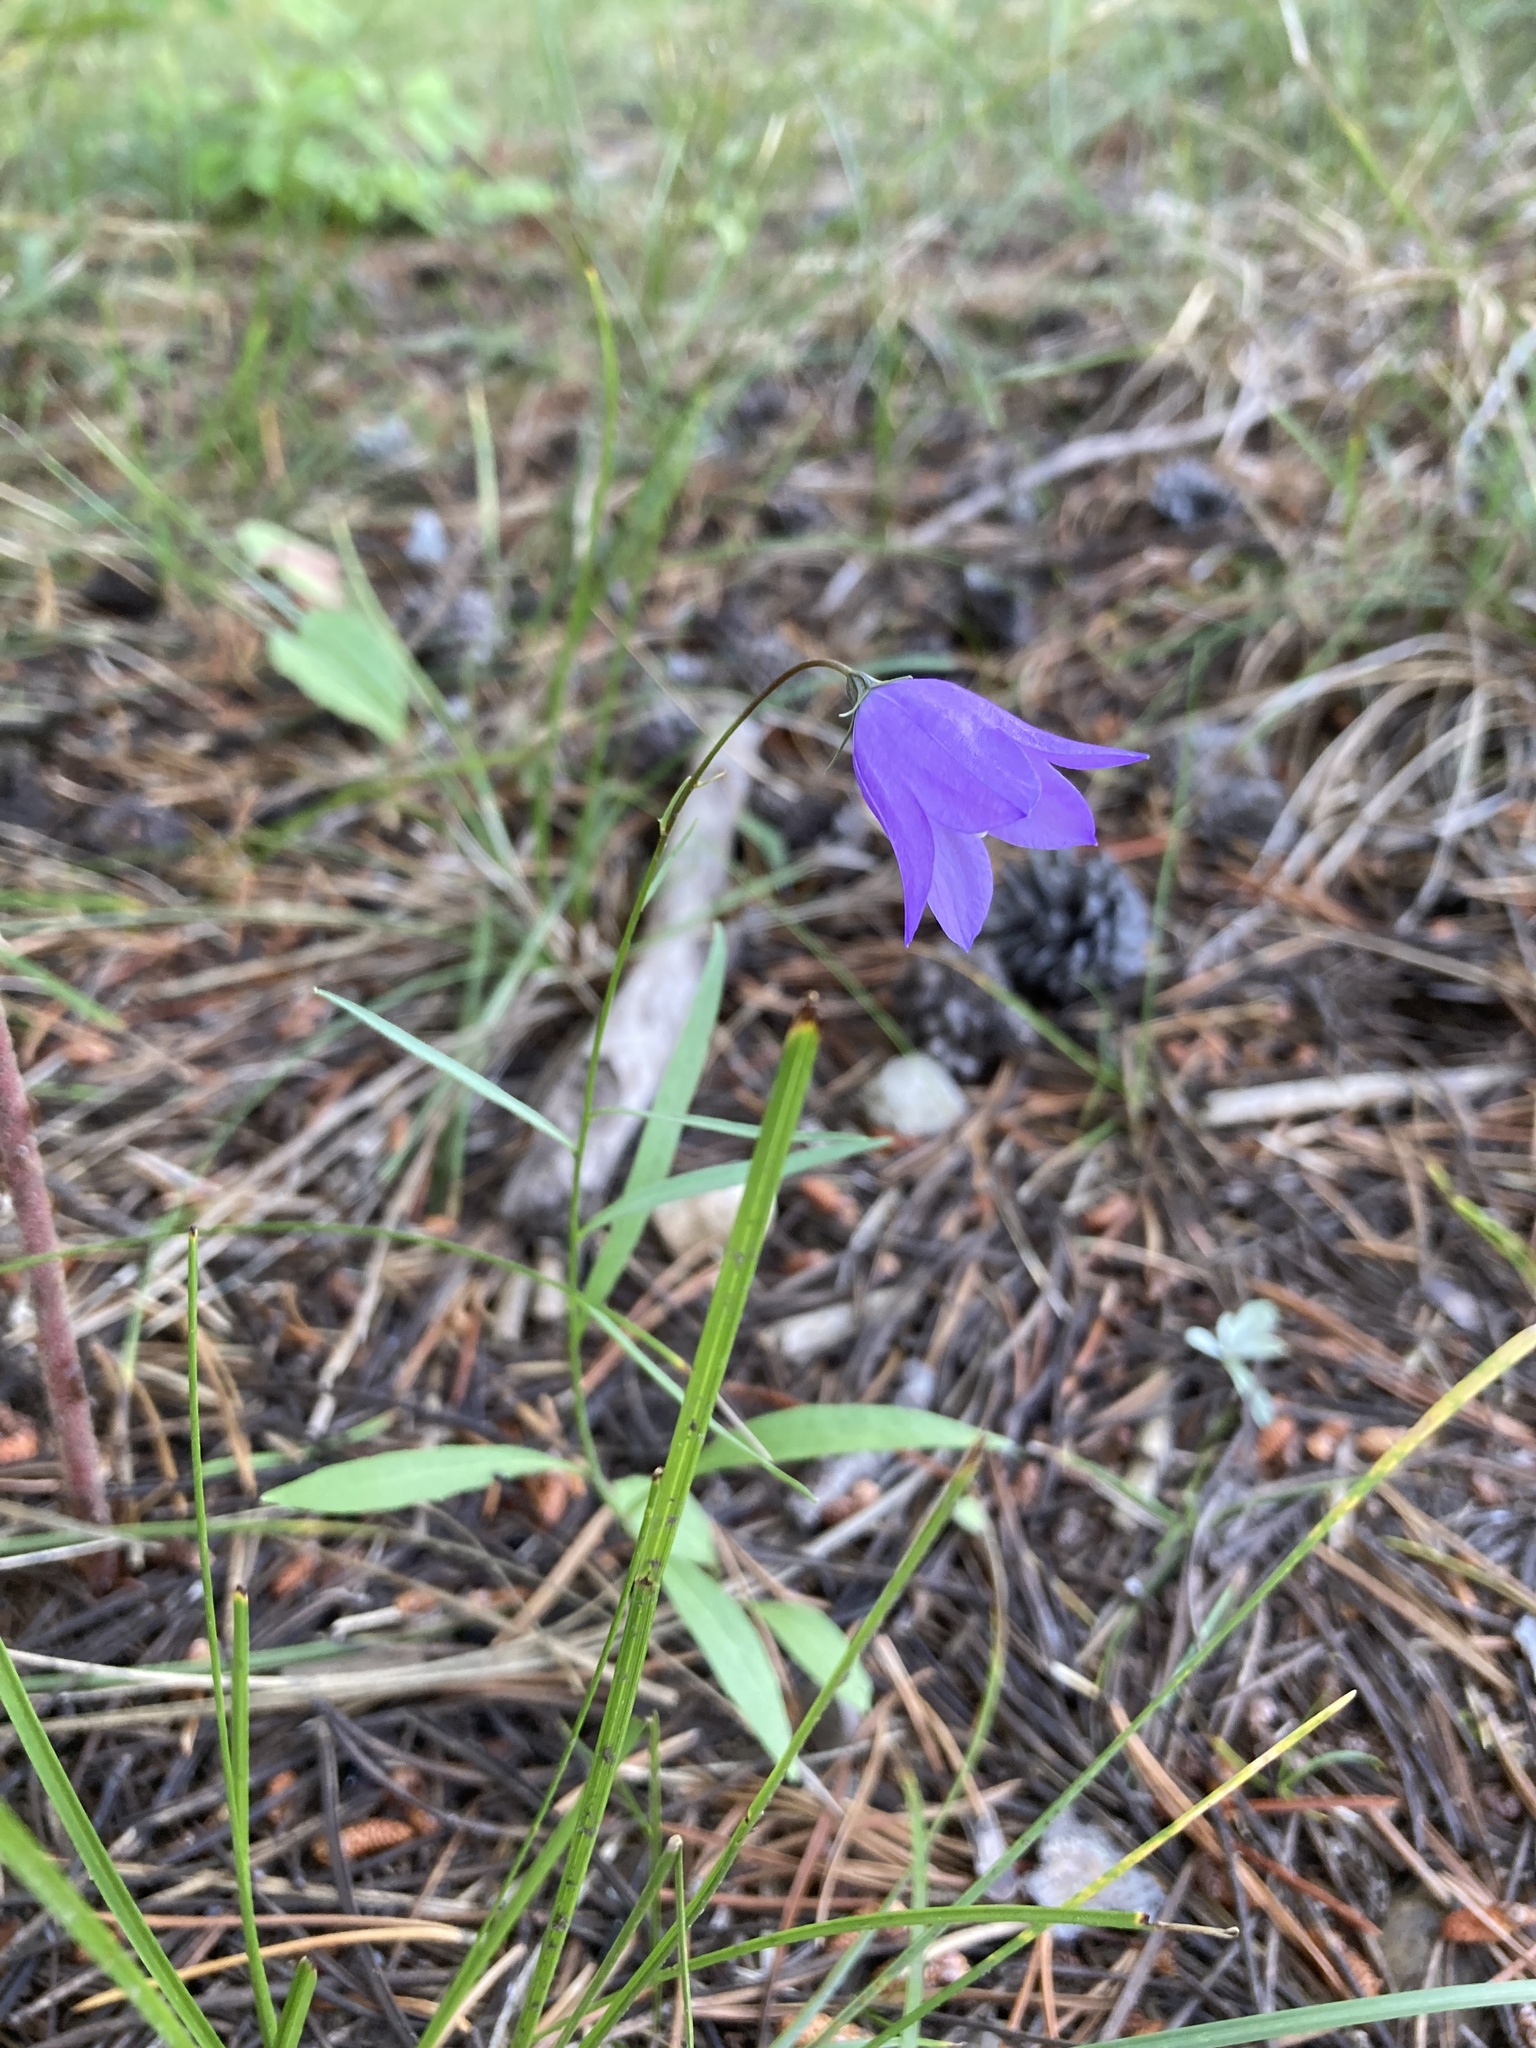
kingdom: Plantae
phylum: Tracheophyta
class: Magnoliopsida
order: Asterales
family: Campanulaceae
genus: Campanula
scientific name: Campanula
